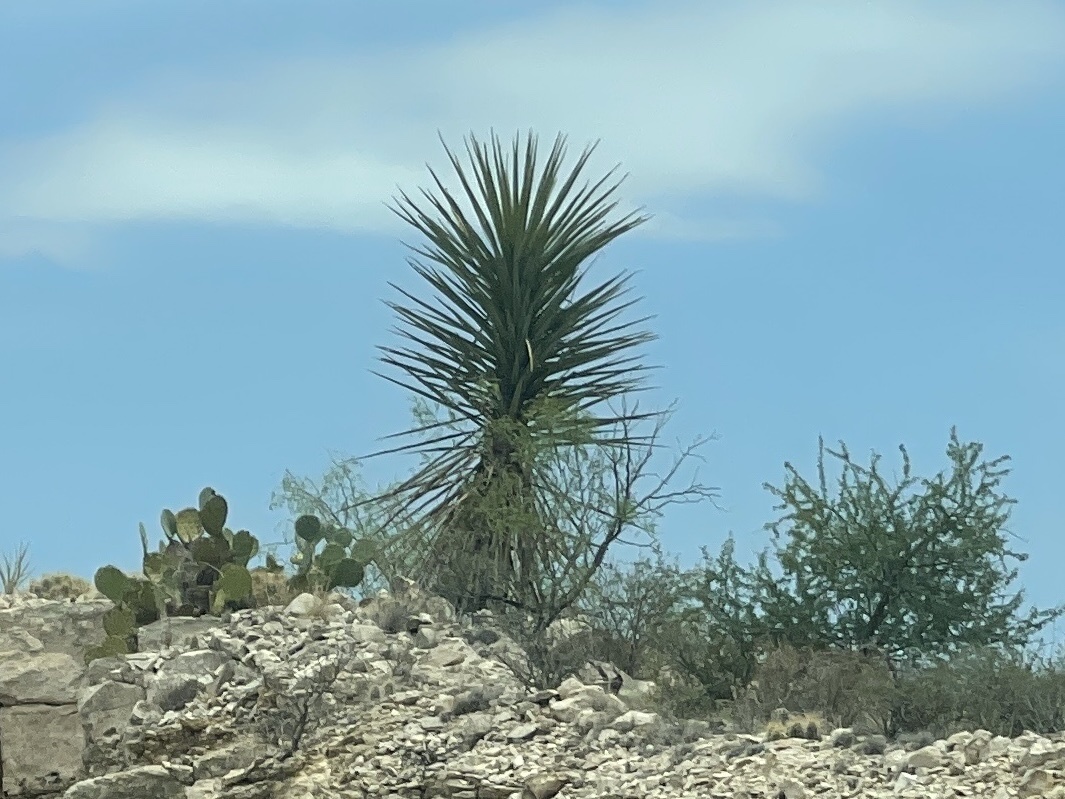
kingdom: Plantae
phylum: Tracheophyta
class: Liliopsida
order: Asparagales
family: Asparagaceae
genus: Yucca
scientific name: Yucca treculiana
